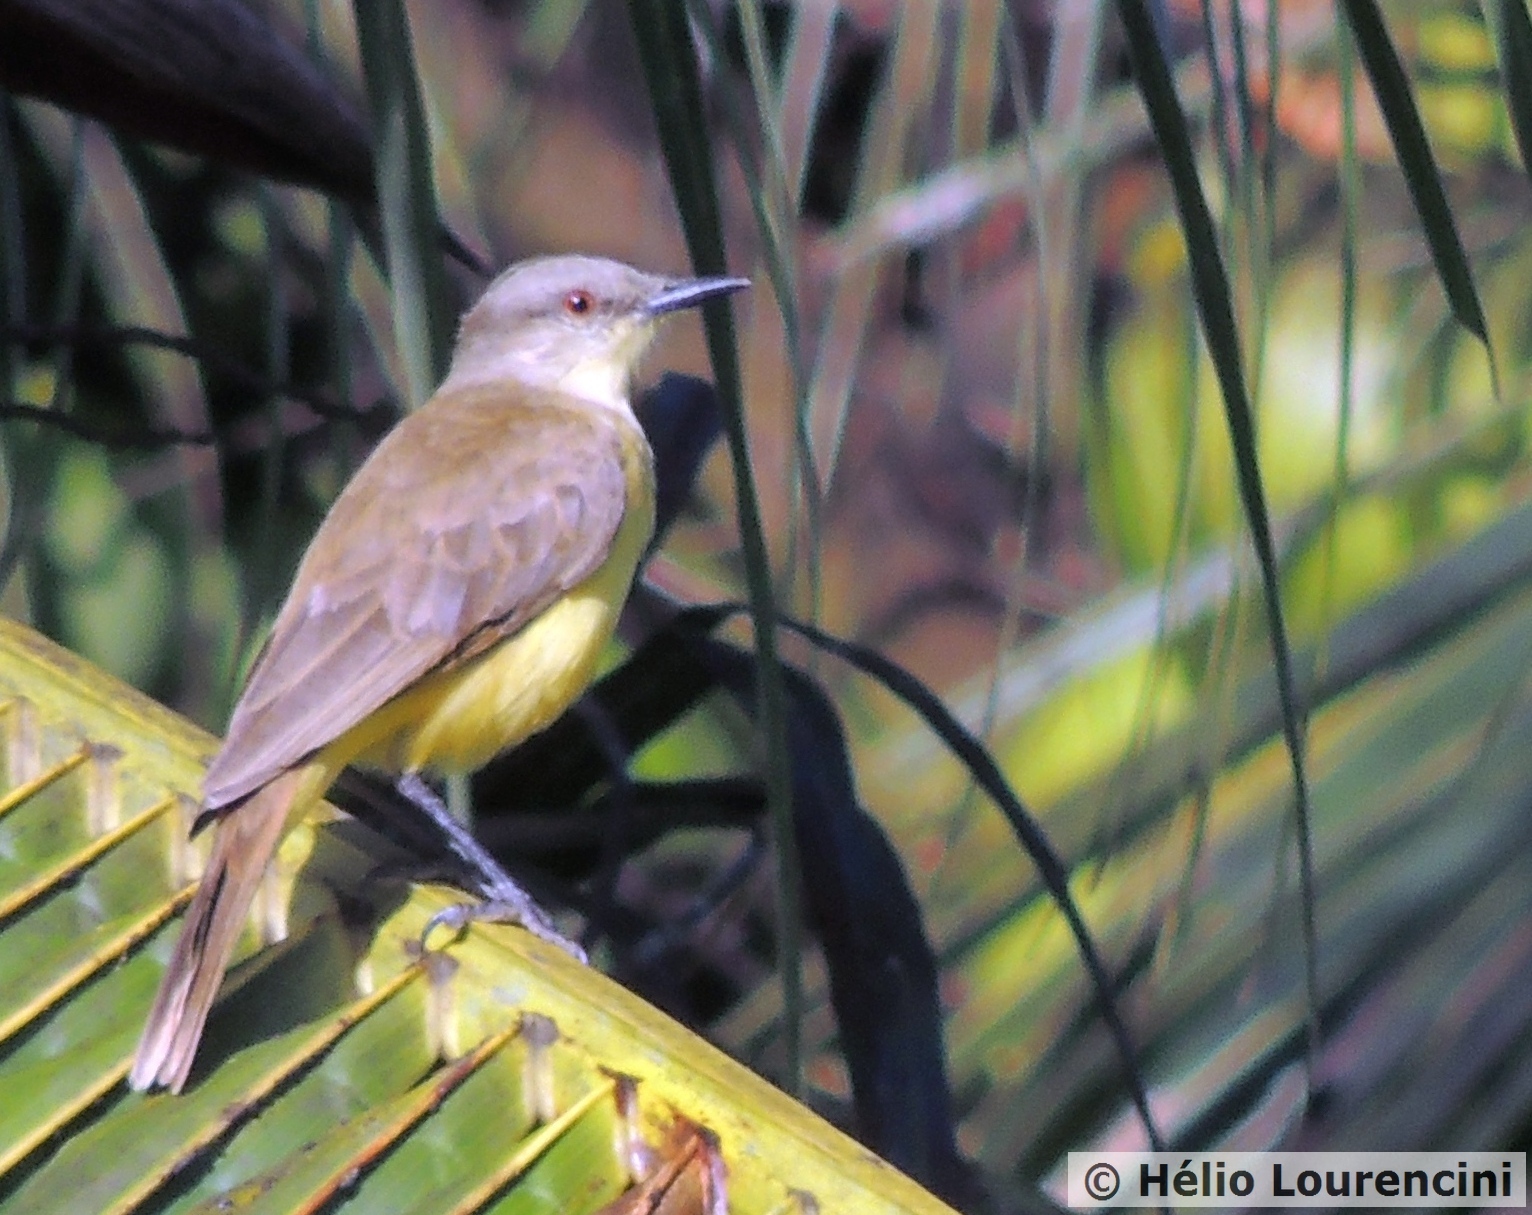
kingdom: Animalia
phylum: Chordata
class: Aves
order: Passeriformes
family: Tyrannidae
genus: Machetornis
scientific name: Machetornis rixosa
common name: Cattle tyrant
